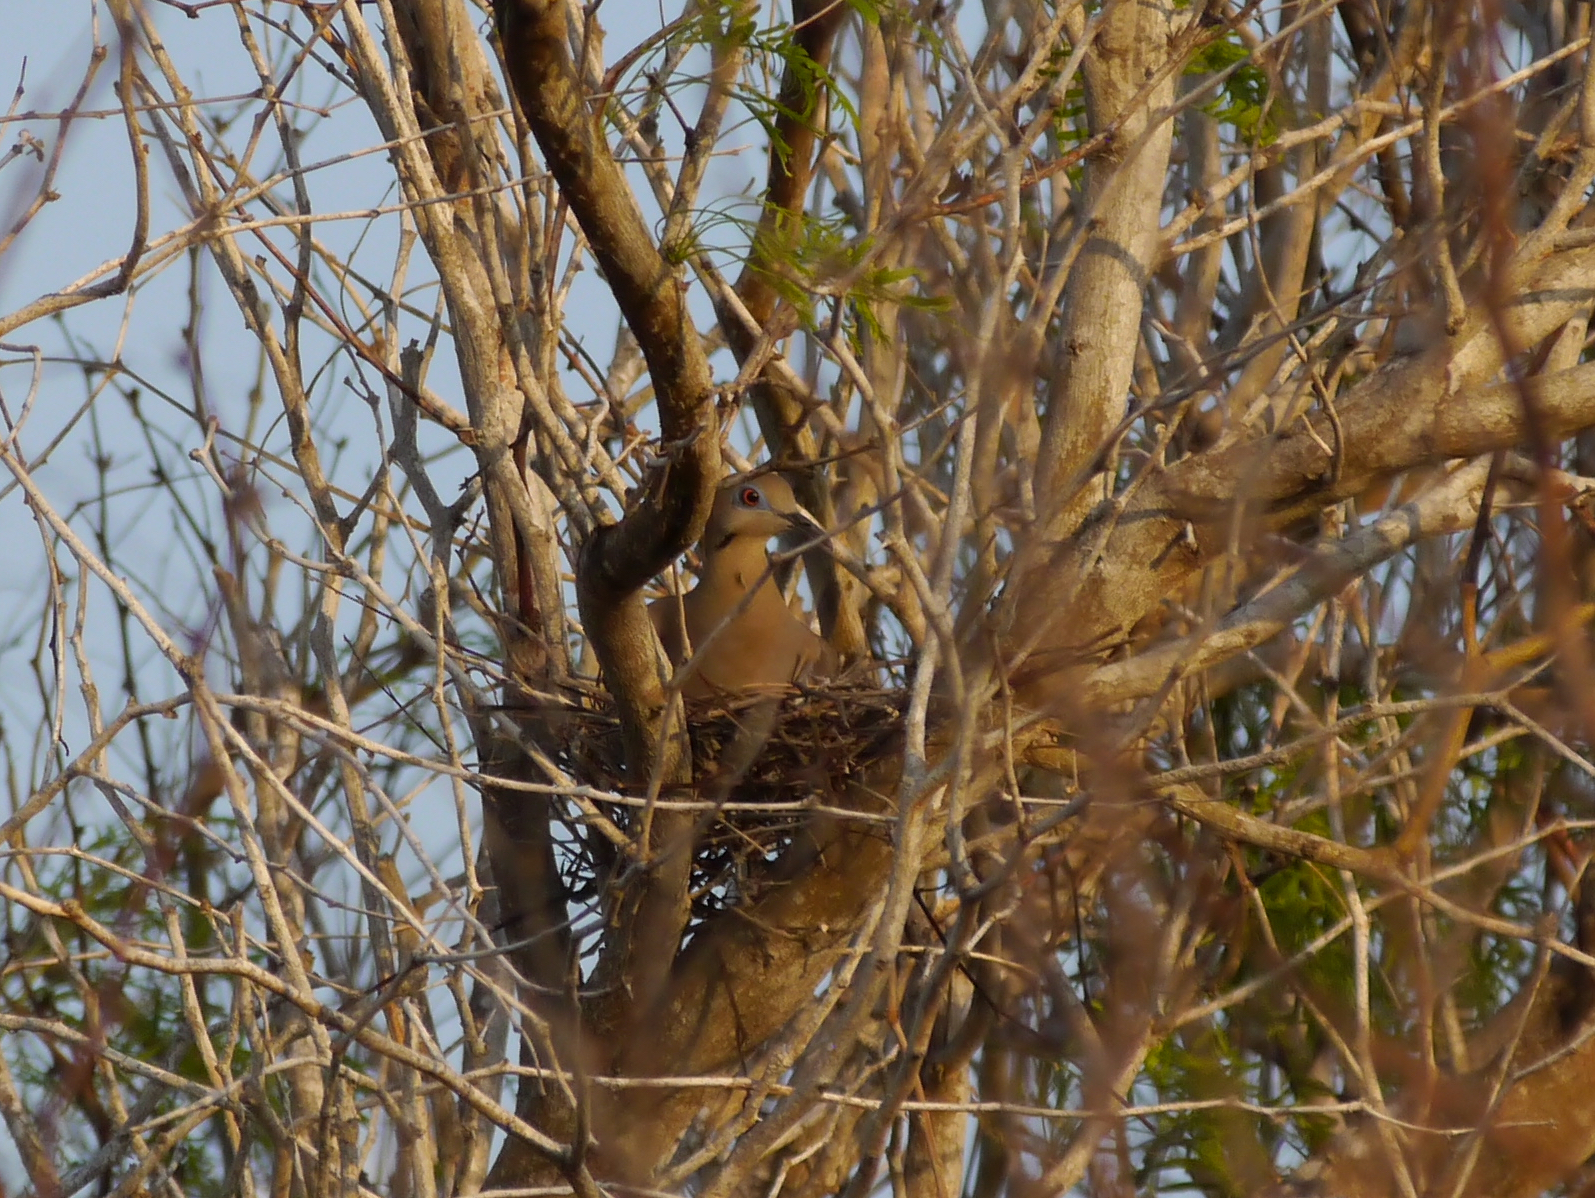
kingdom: Animalia
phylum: Chordata
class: Aves
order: Columbiformes
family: Columbidae
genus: Zenaida
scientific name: Zenaida asiatica
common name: White-winged dove
